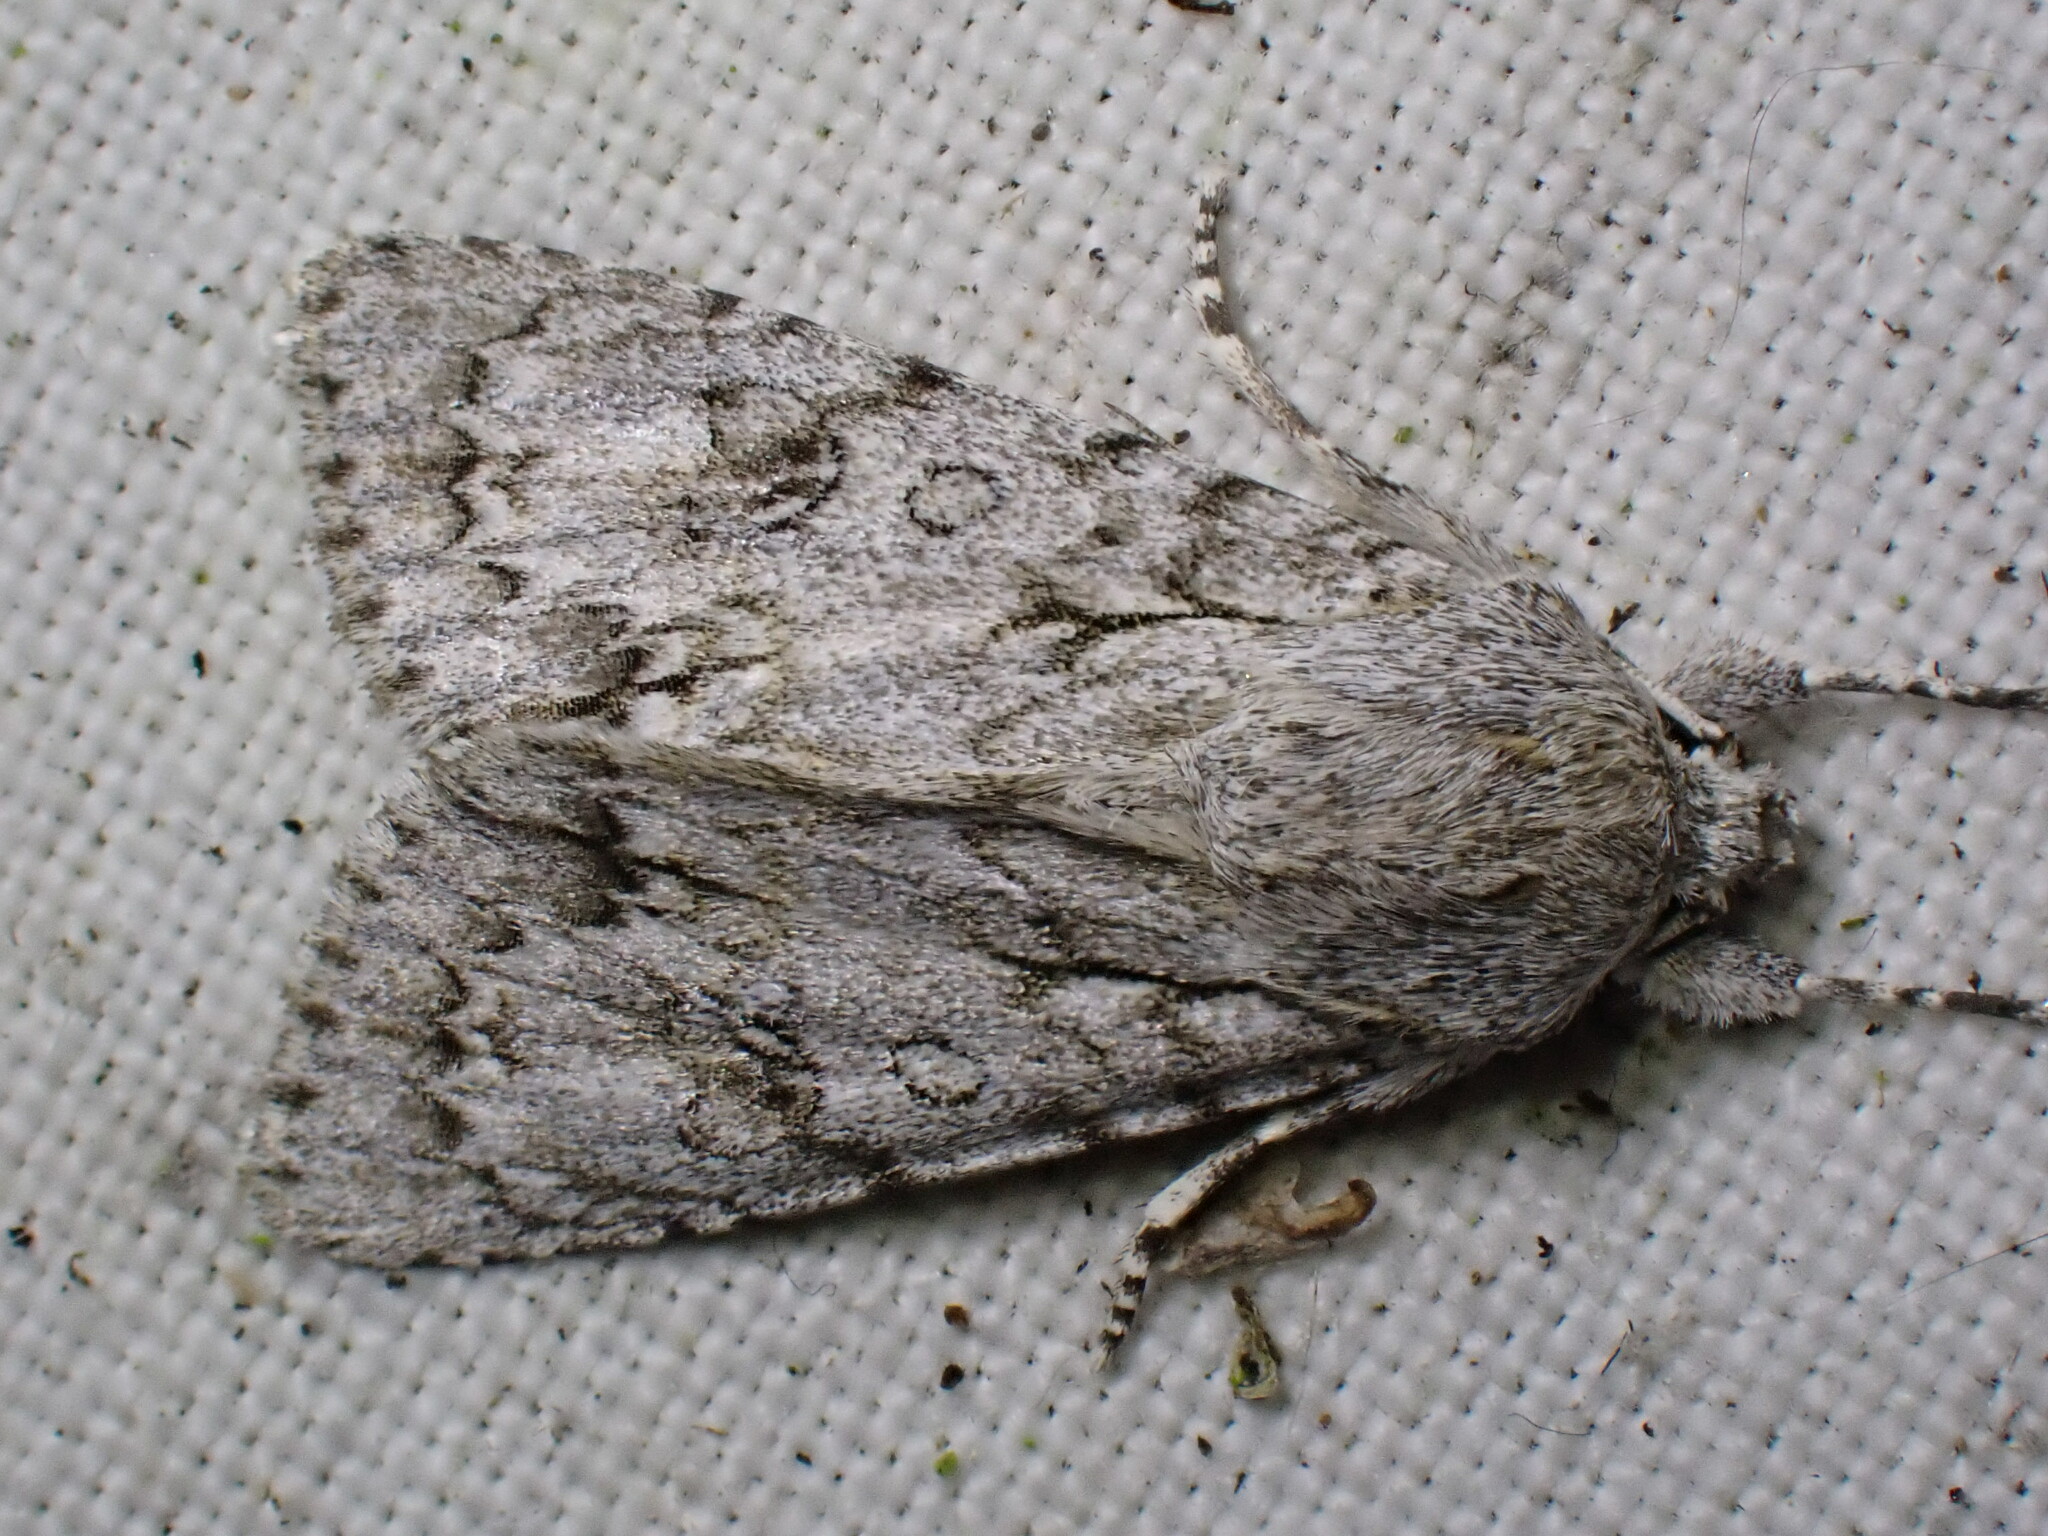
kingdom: Animalia
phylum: Arthropoda
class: Insecta
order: Lepidoptera
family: Noctuidae
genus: Acronicta
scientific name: Acronicta aceris
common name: Sycamore
